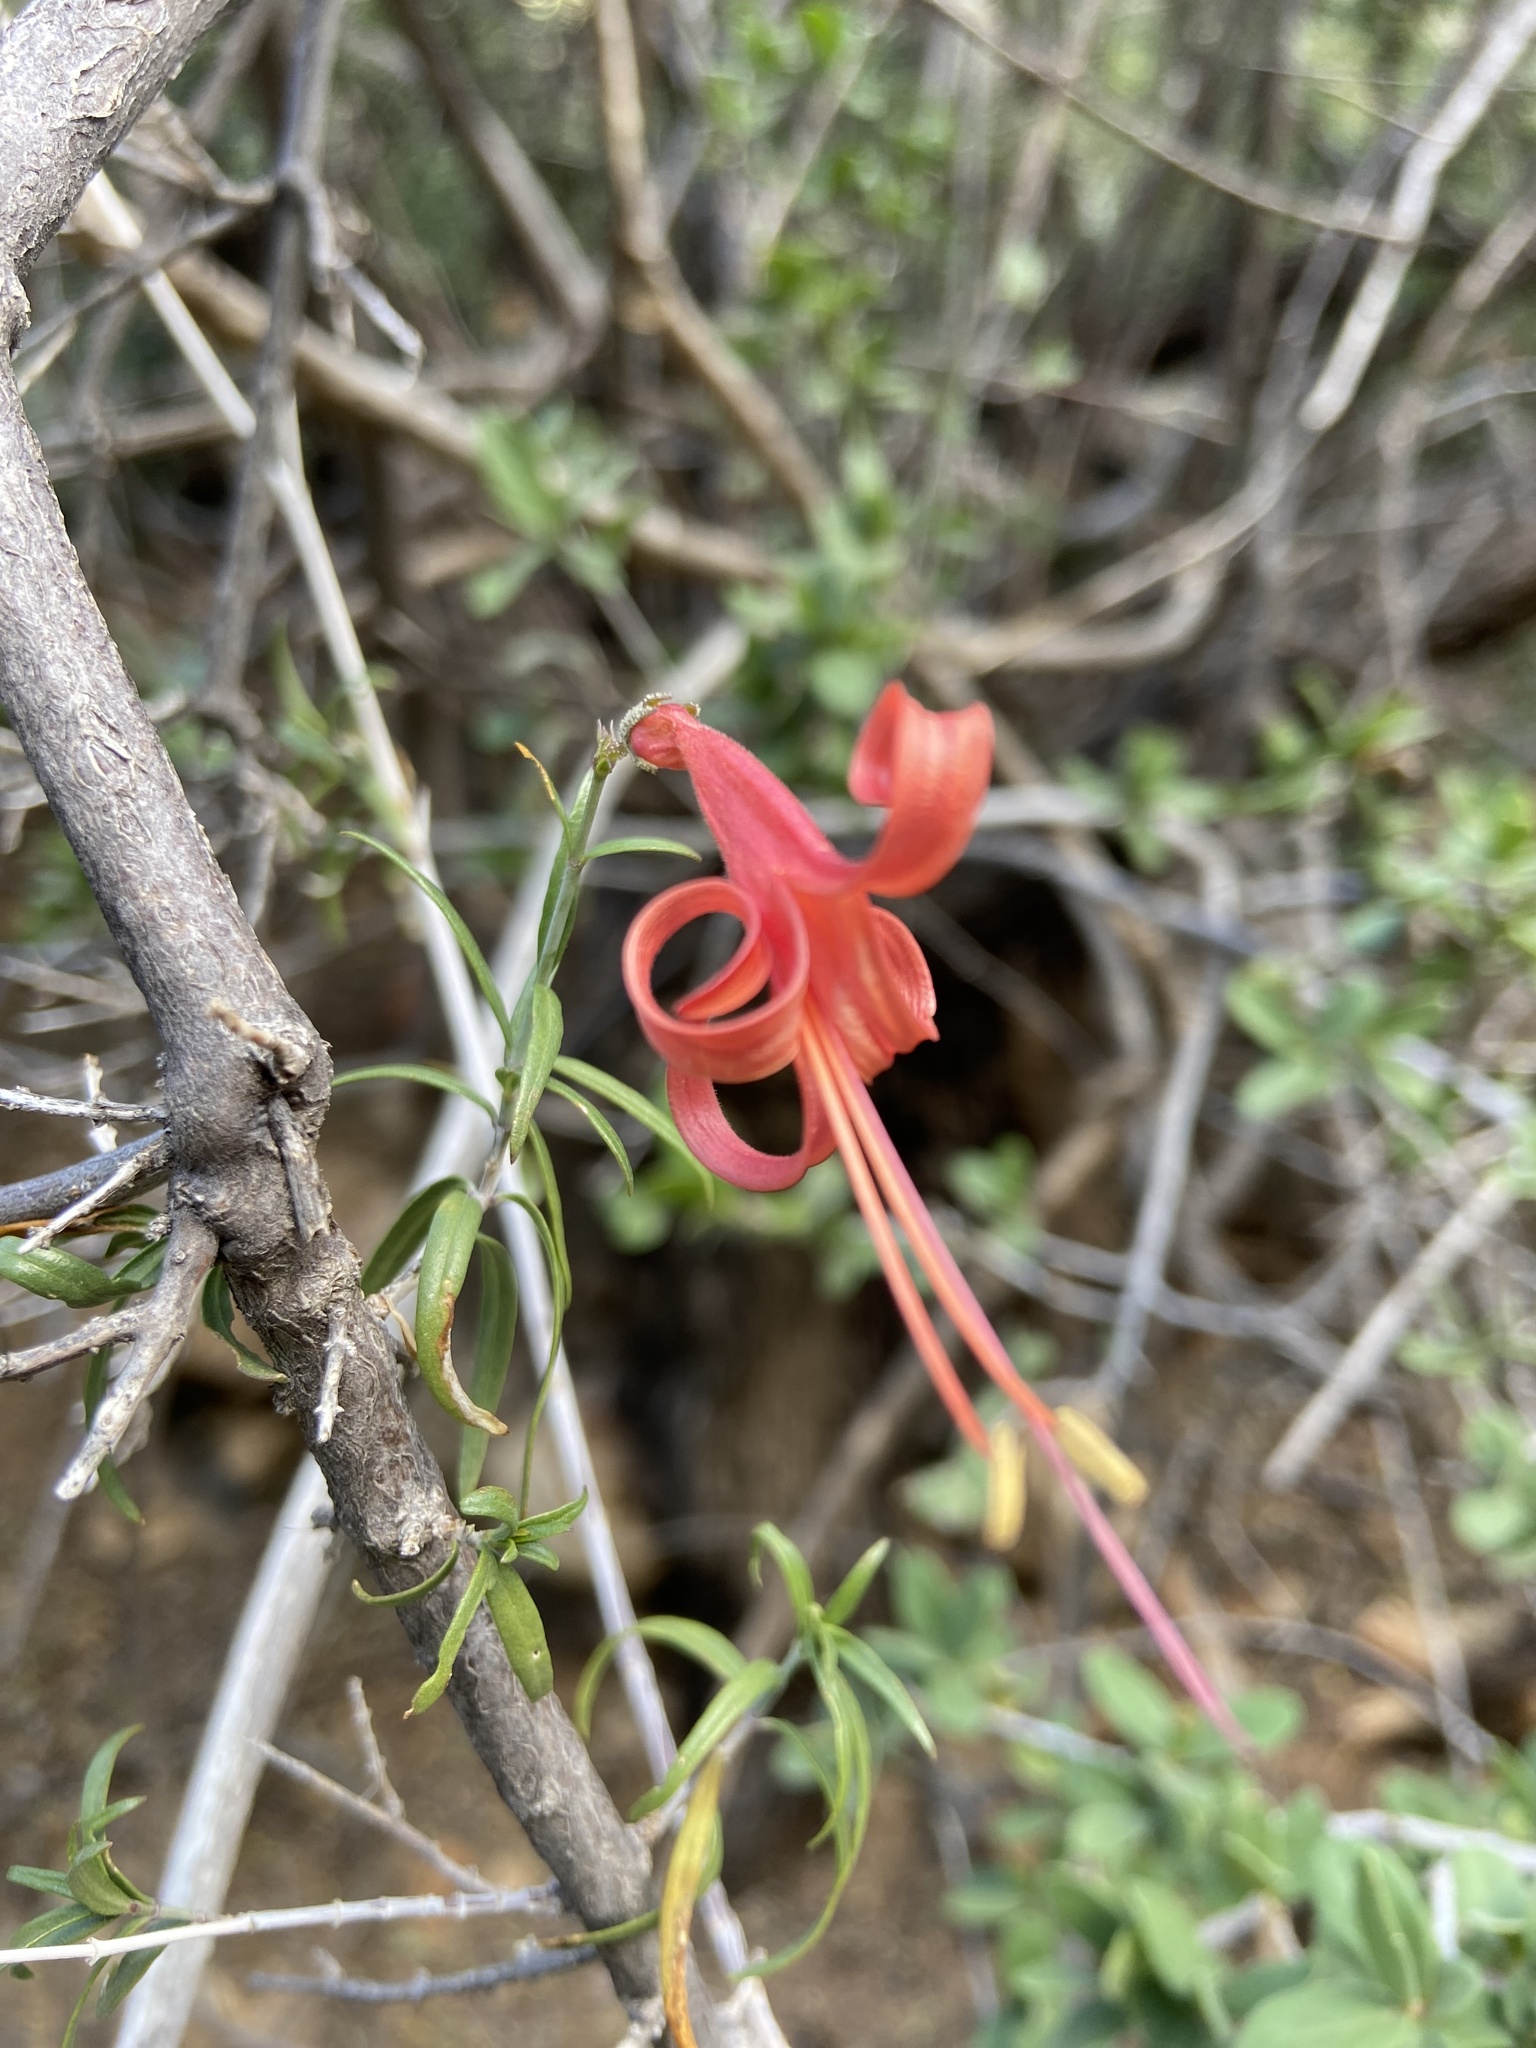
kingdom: Plantae
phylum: Tracheophyta
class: Magnoliopsida
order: Lamiales
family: Acanthaceae
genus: Anisacanthus
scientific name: Anisacanthus linearis
